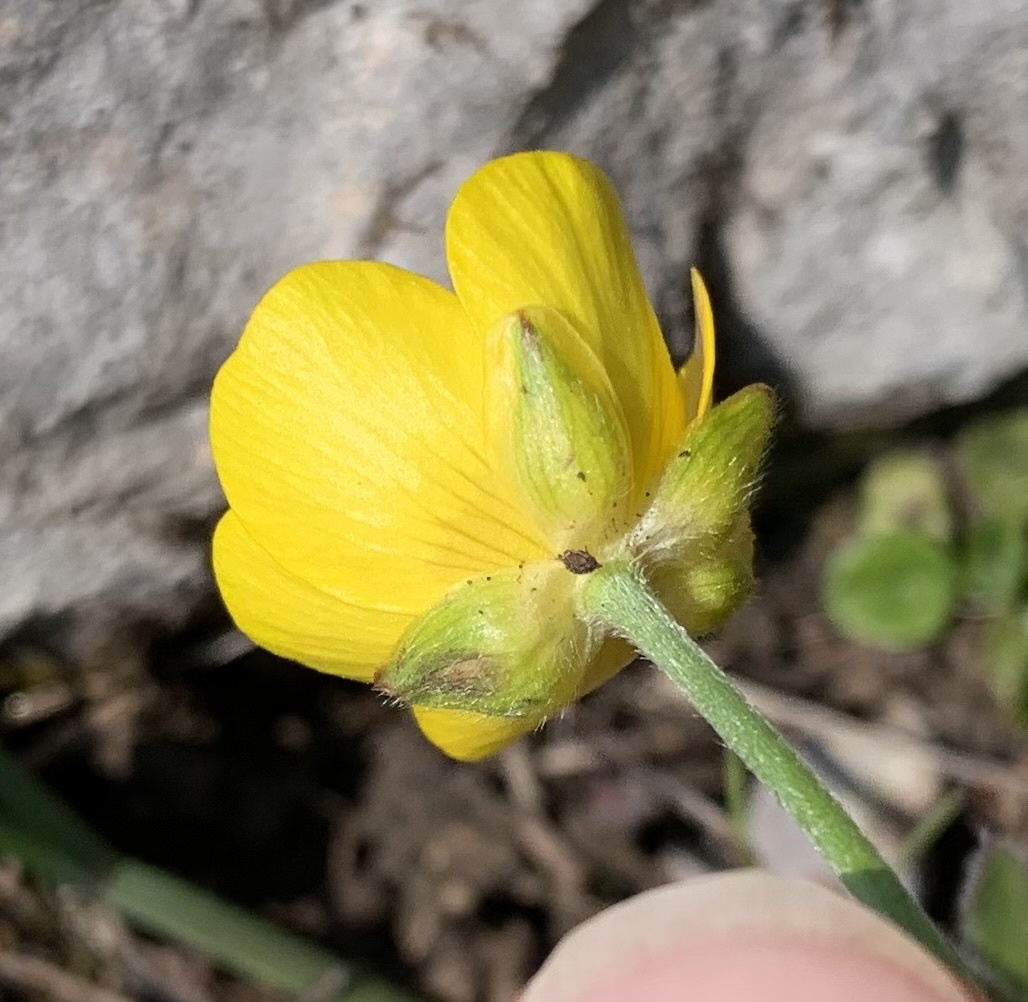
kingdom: Plantae
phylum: Tracheophyta
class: Magnoliopsida
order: Ranunculales
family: Ranunculaceae
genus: Ranunculus
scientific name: Ranunculus montanus
